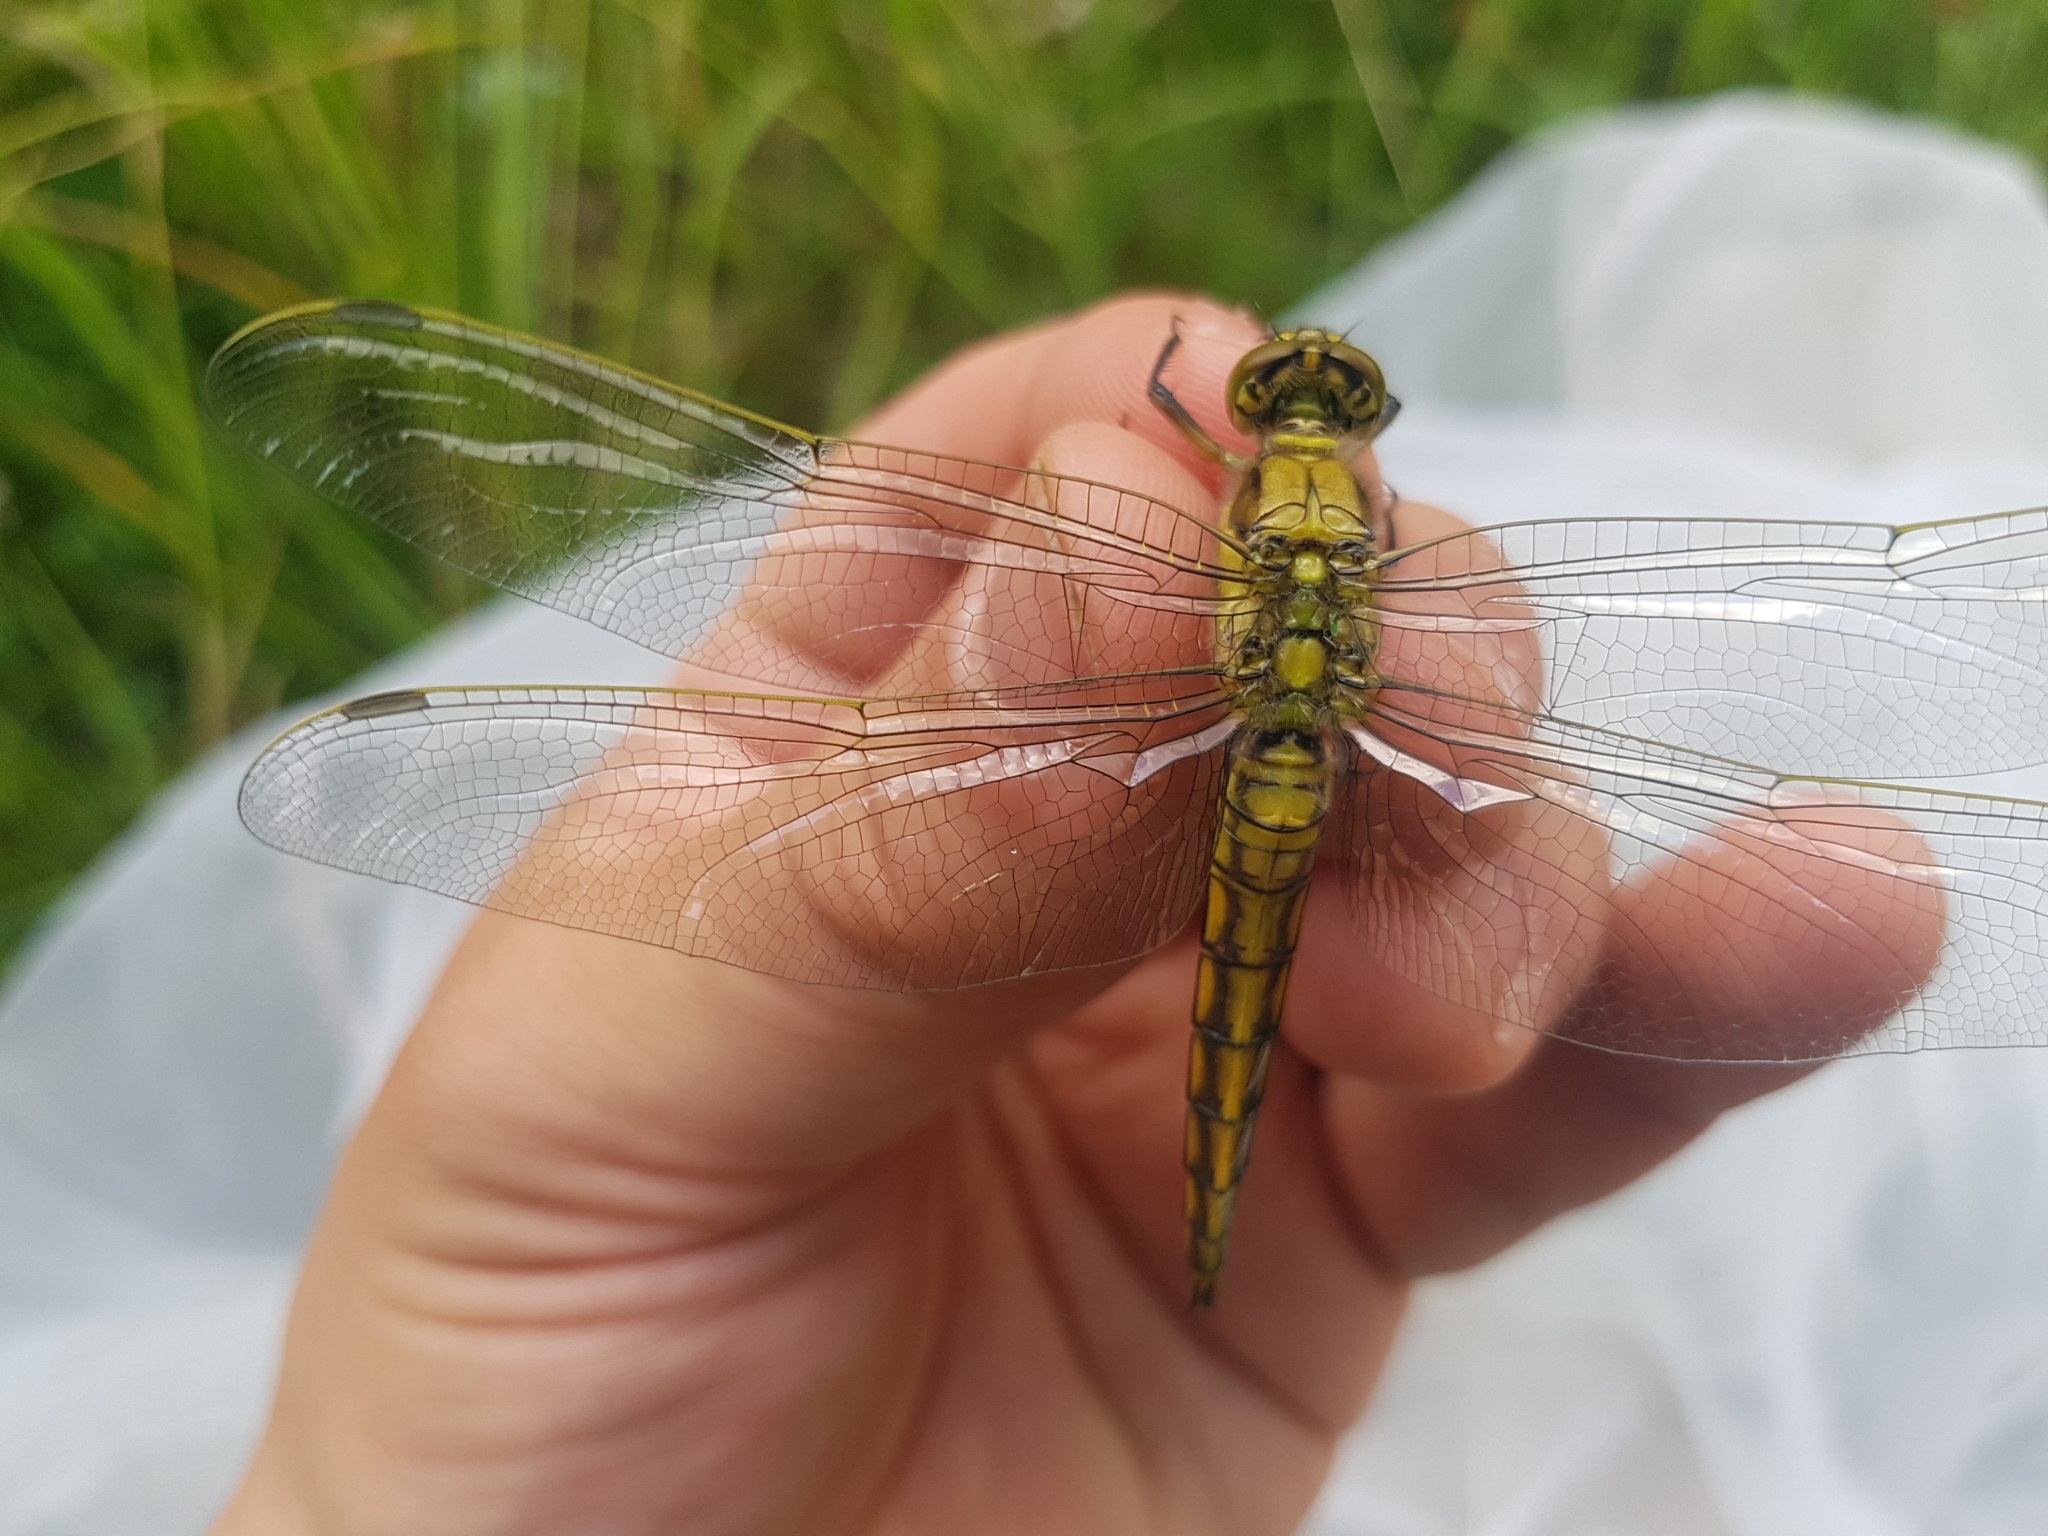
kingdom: Animalia
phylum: Arthropoda
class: Insecta
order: Odonata
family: Libellulidae
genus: Orthetrum
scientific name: Orthetrum cancellatum
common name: Black-tailed skimmer
